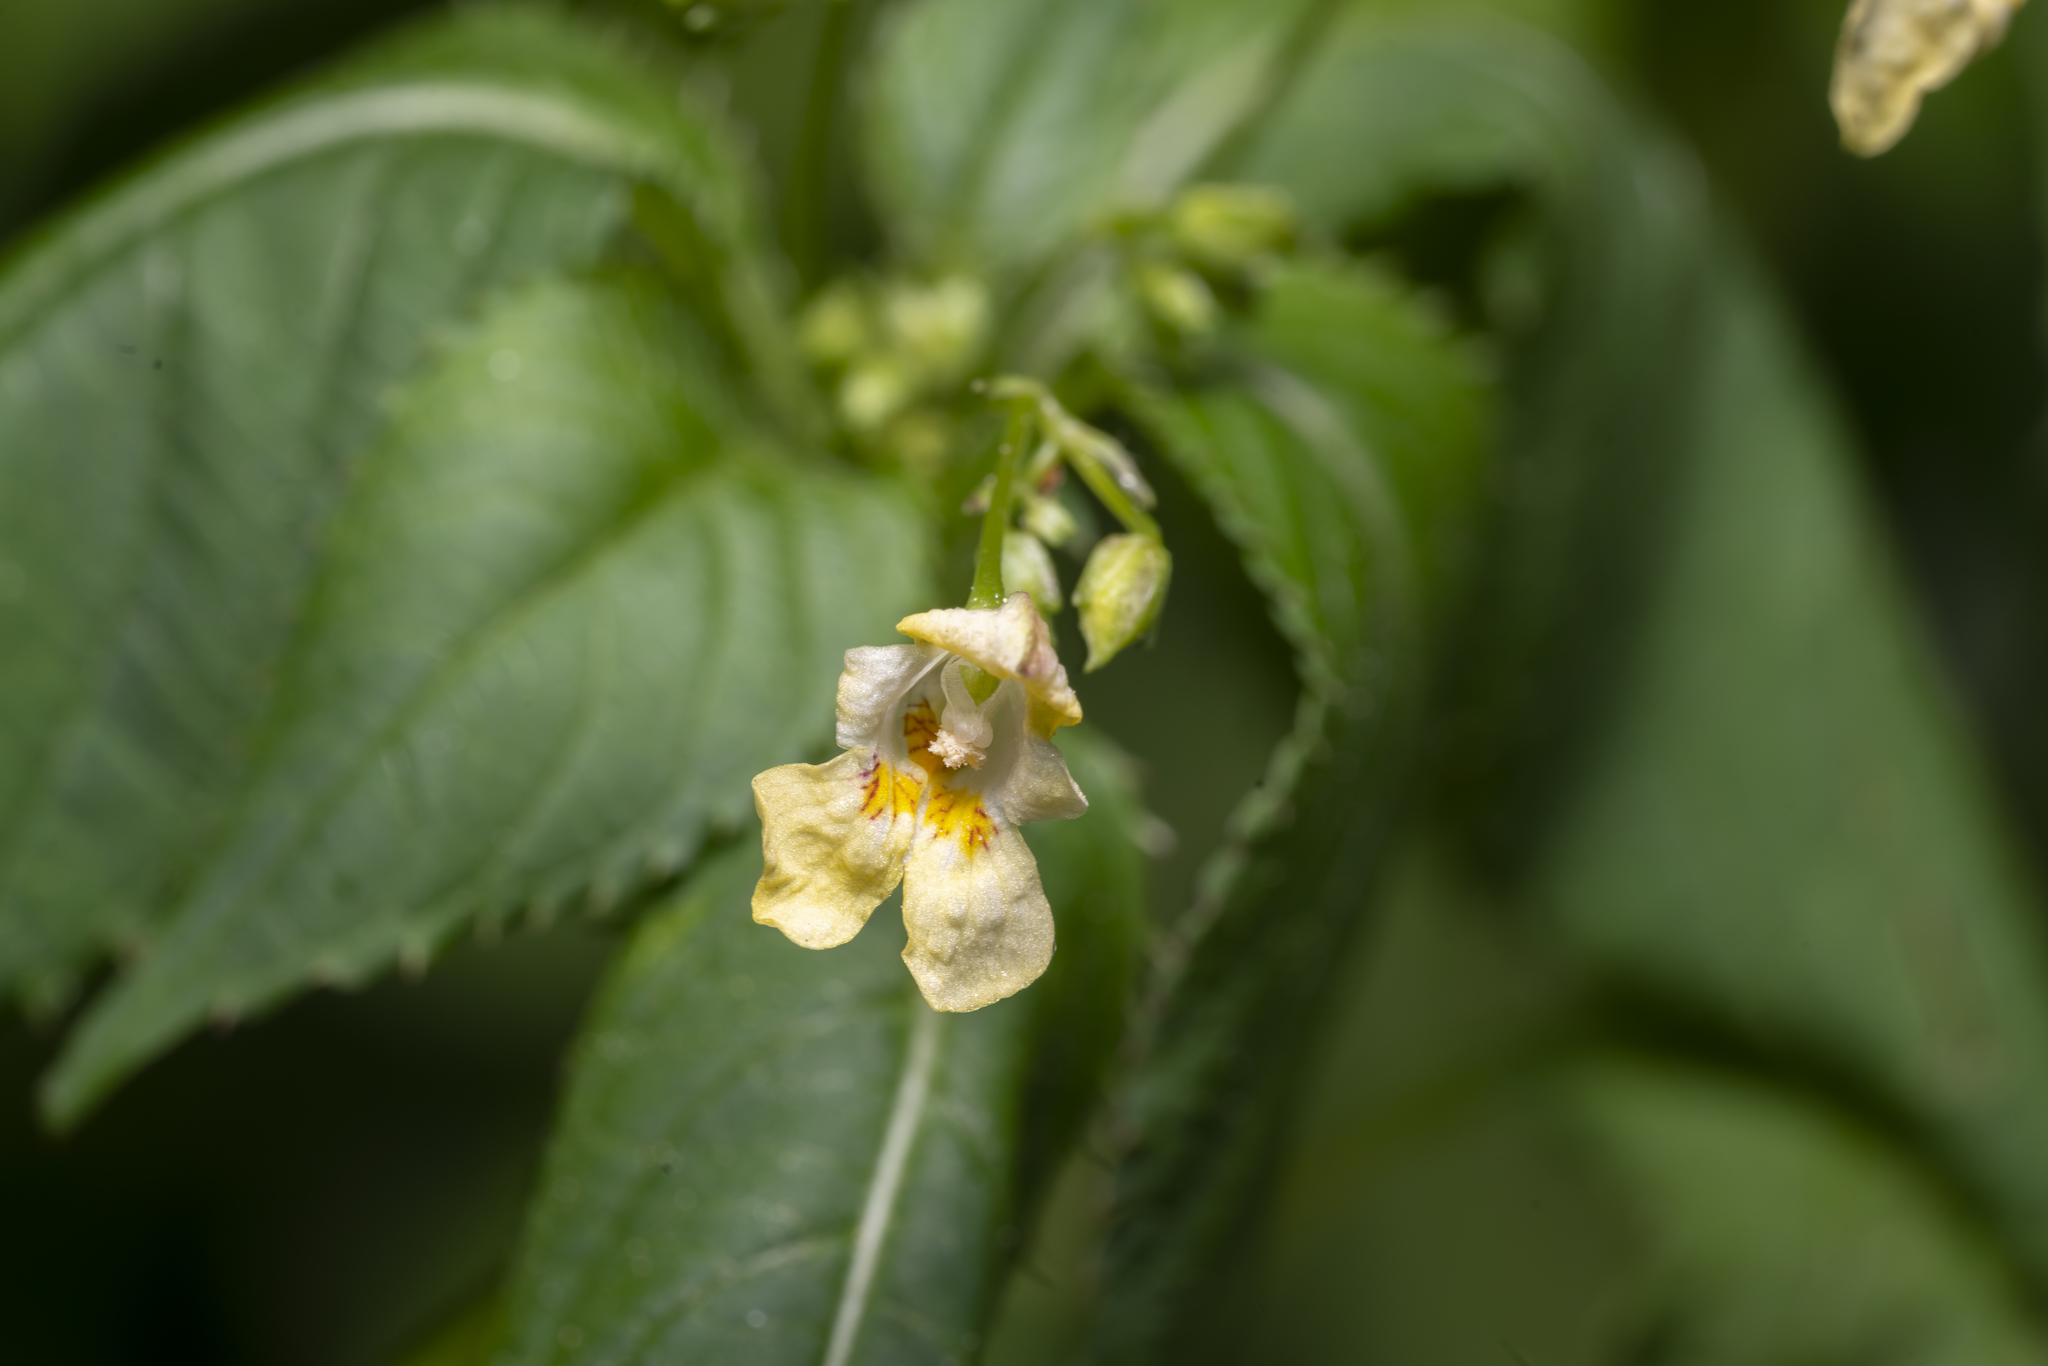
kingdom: Plantae
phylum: Tracheophyta
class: Magnoliopsida
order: Ericales
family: Balsaminaceae
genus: Impatiens
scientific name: Impatiens parviflora
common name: Small balsam
